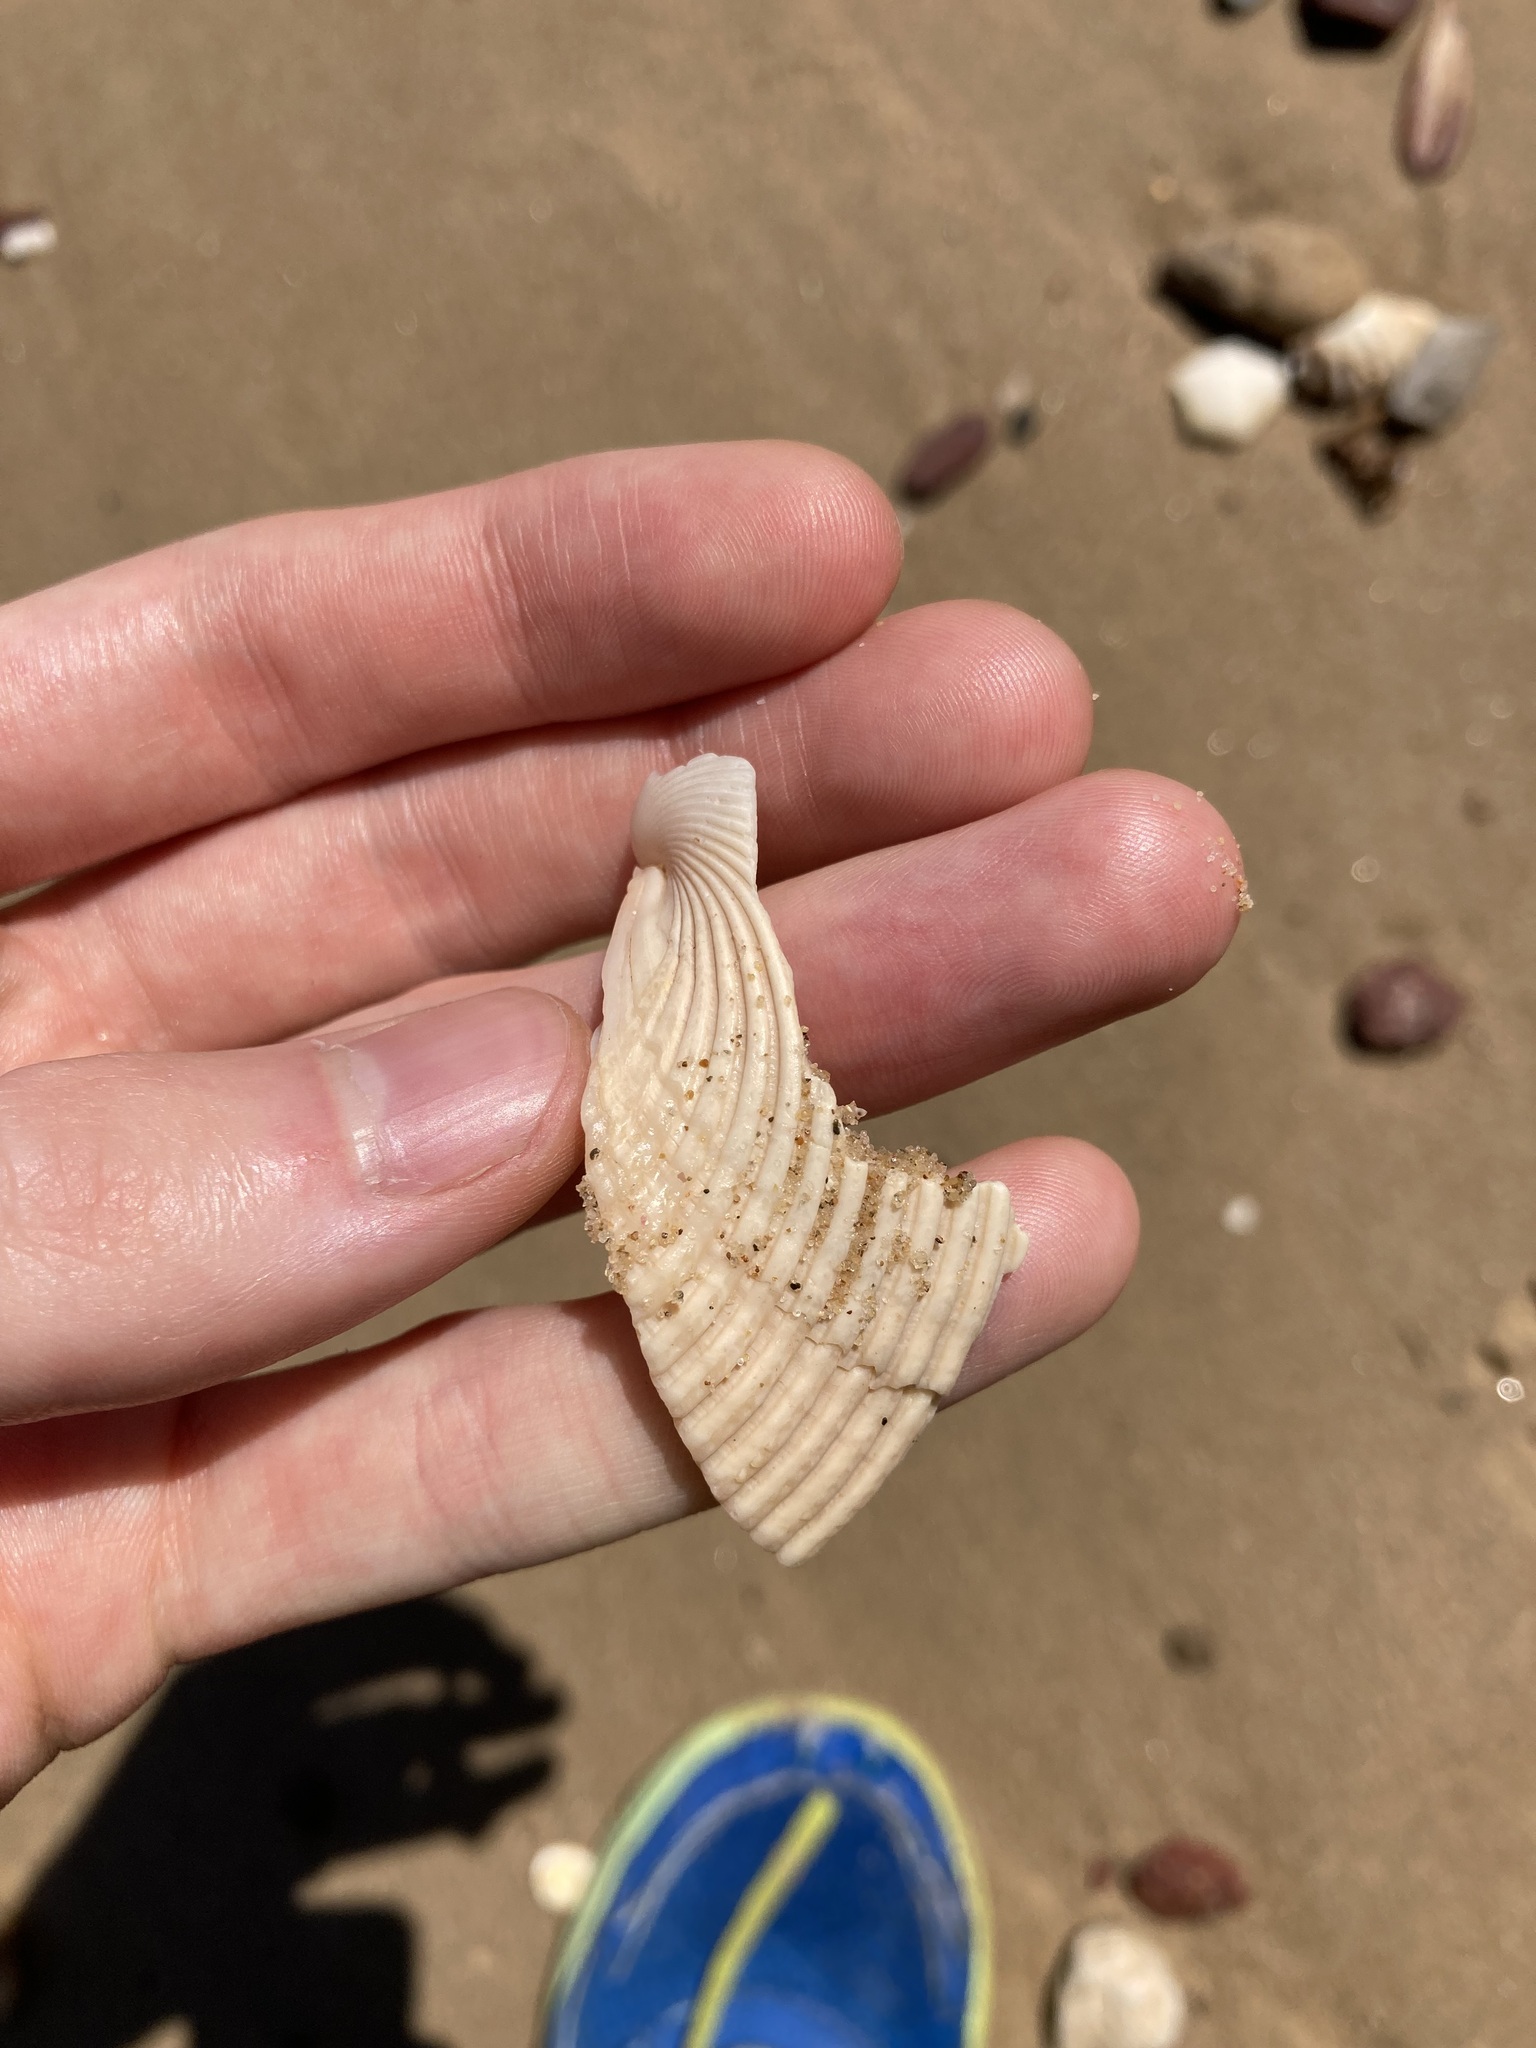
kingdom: Animalia
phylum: Mollusca
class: Bivalvia
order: Cardiida
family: Cardiidae
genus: Vepricardium
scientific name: Vepricardium multispinosum
